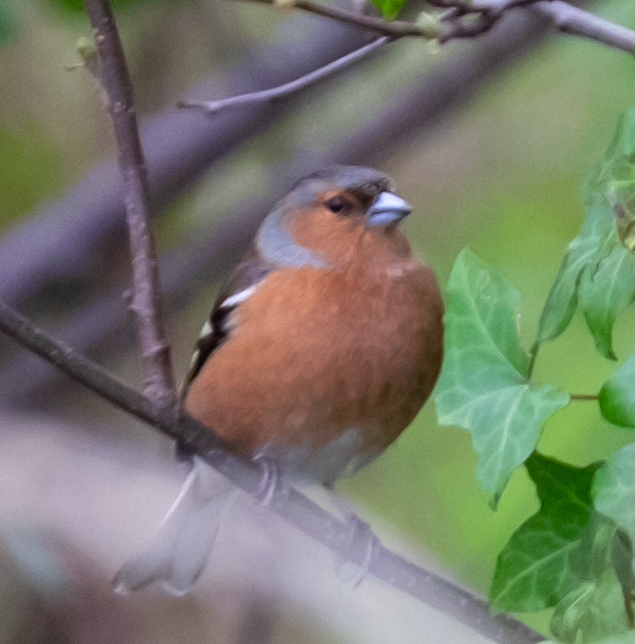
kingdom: Animalia
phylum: Chordata
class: Aves
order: Passeriformes
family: Fringillidae
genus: Fringilla
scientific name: Fringilla coelebs
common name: Common chaffinch
